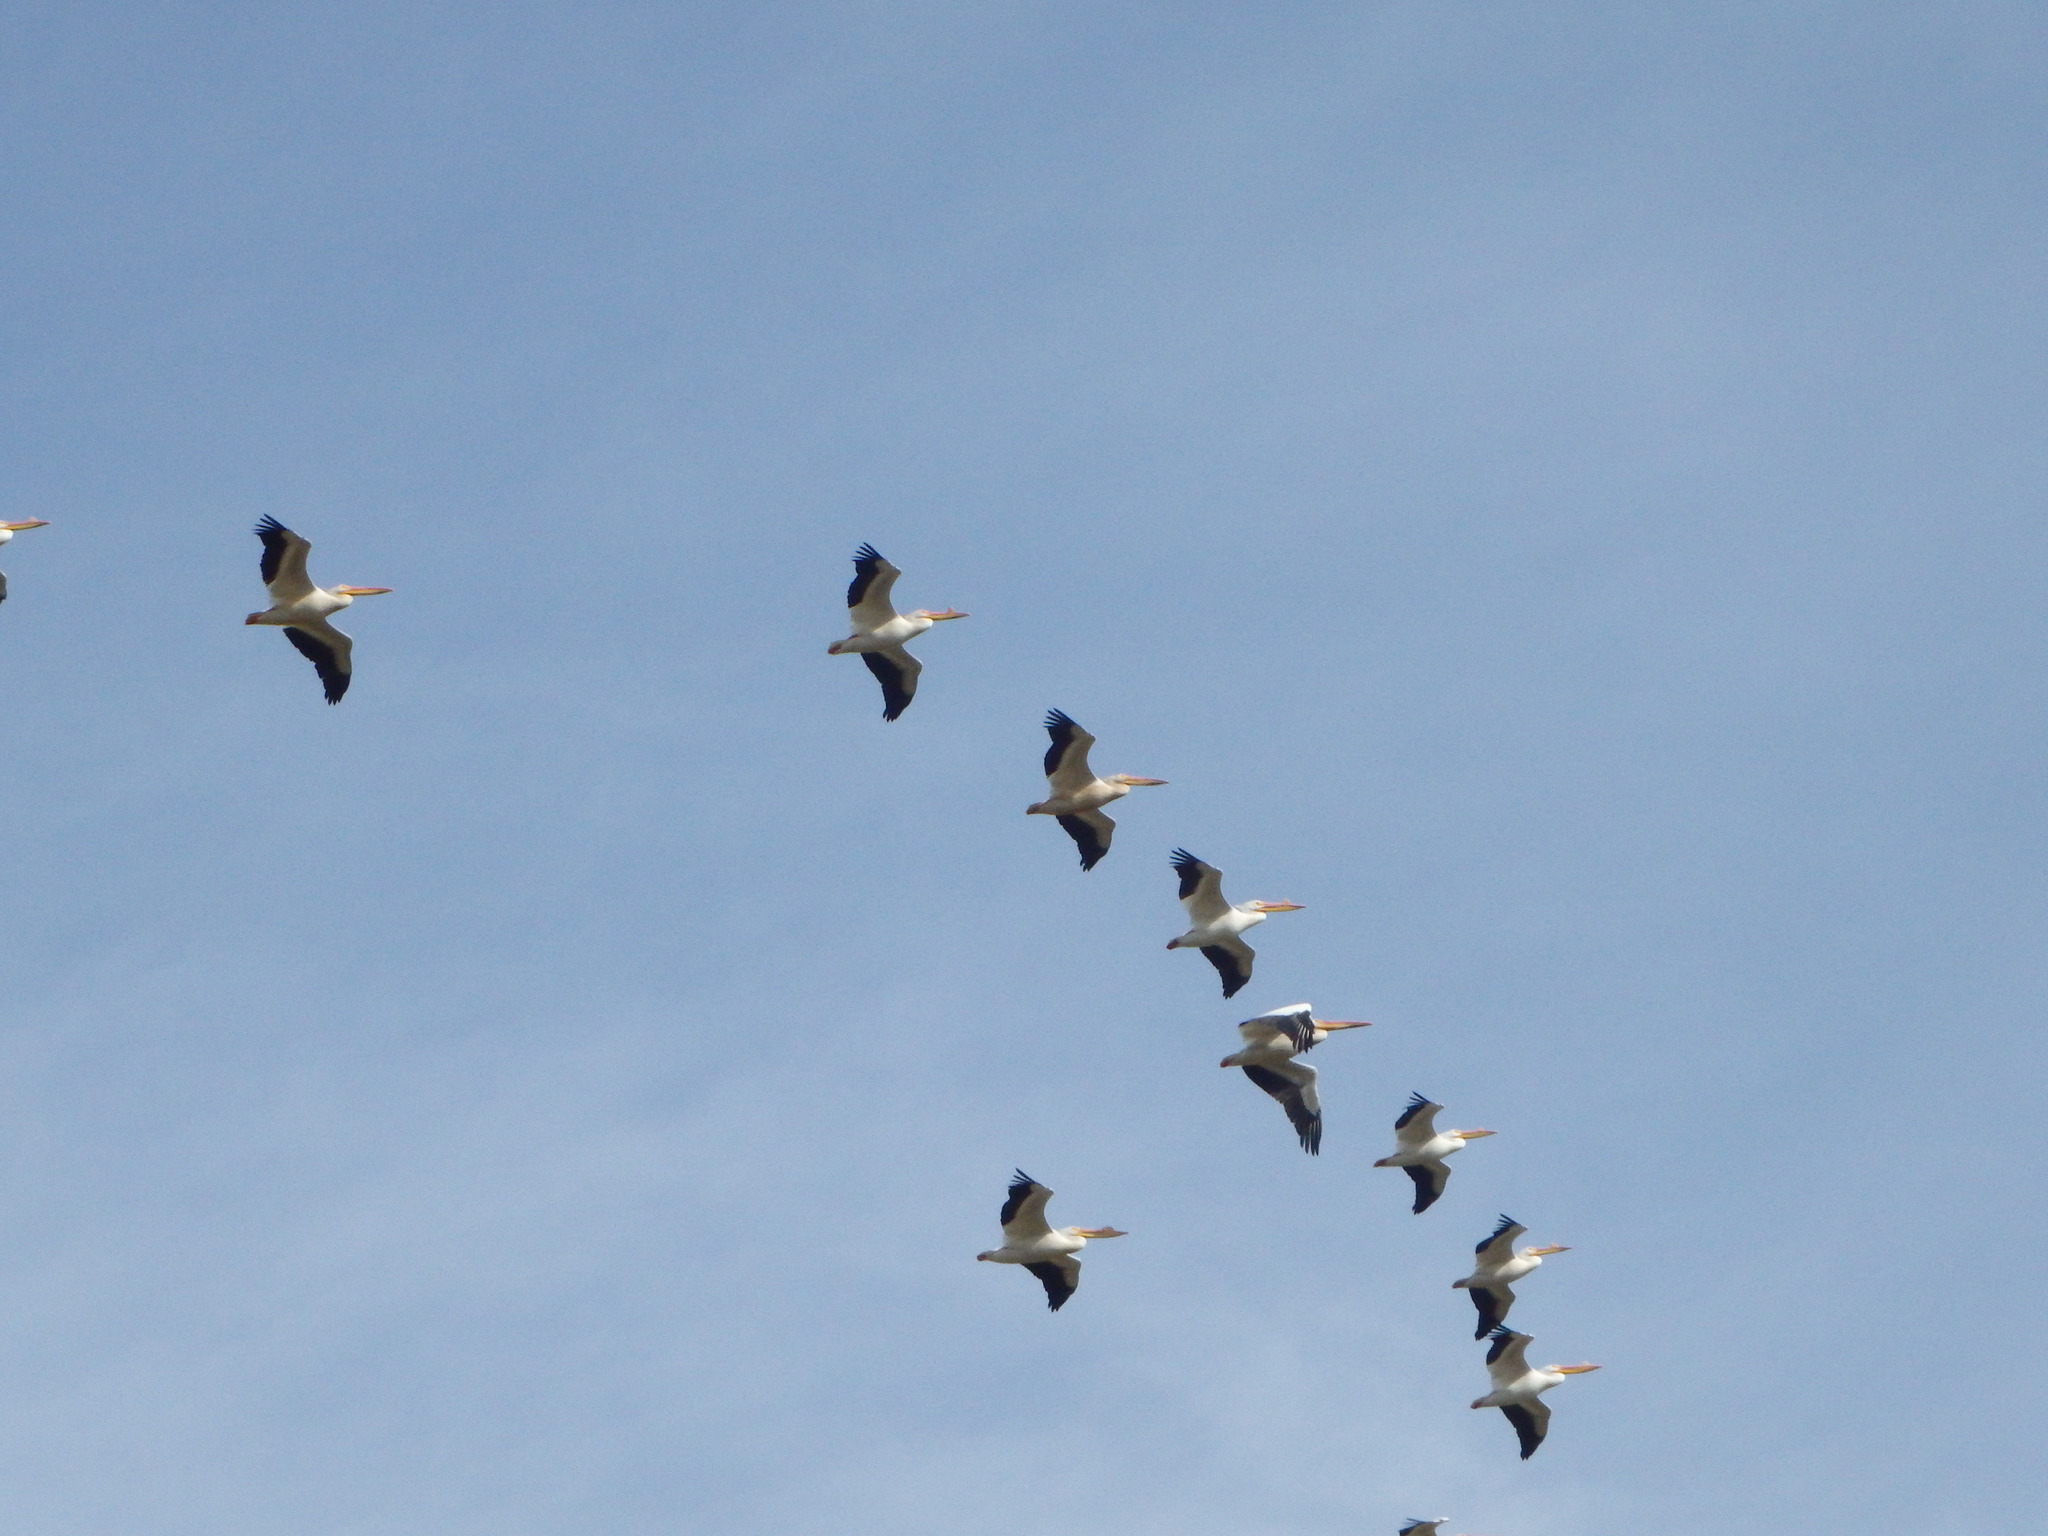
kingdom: Animalia
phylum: Chordata
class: Aves
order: Pelecaniformes
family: Pelecanidae
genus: Pelecanus
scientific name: Pelecanus erythrorhynchos
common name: American white pelican
